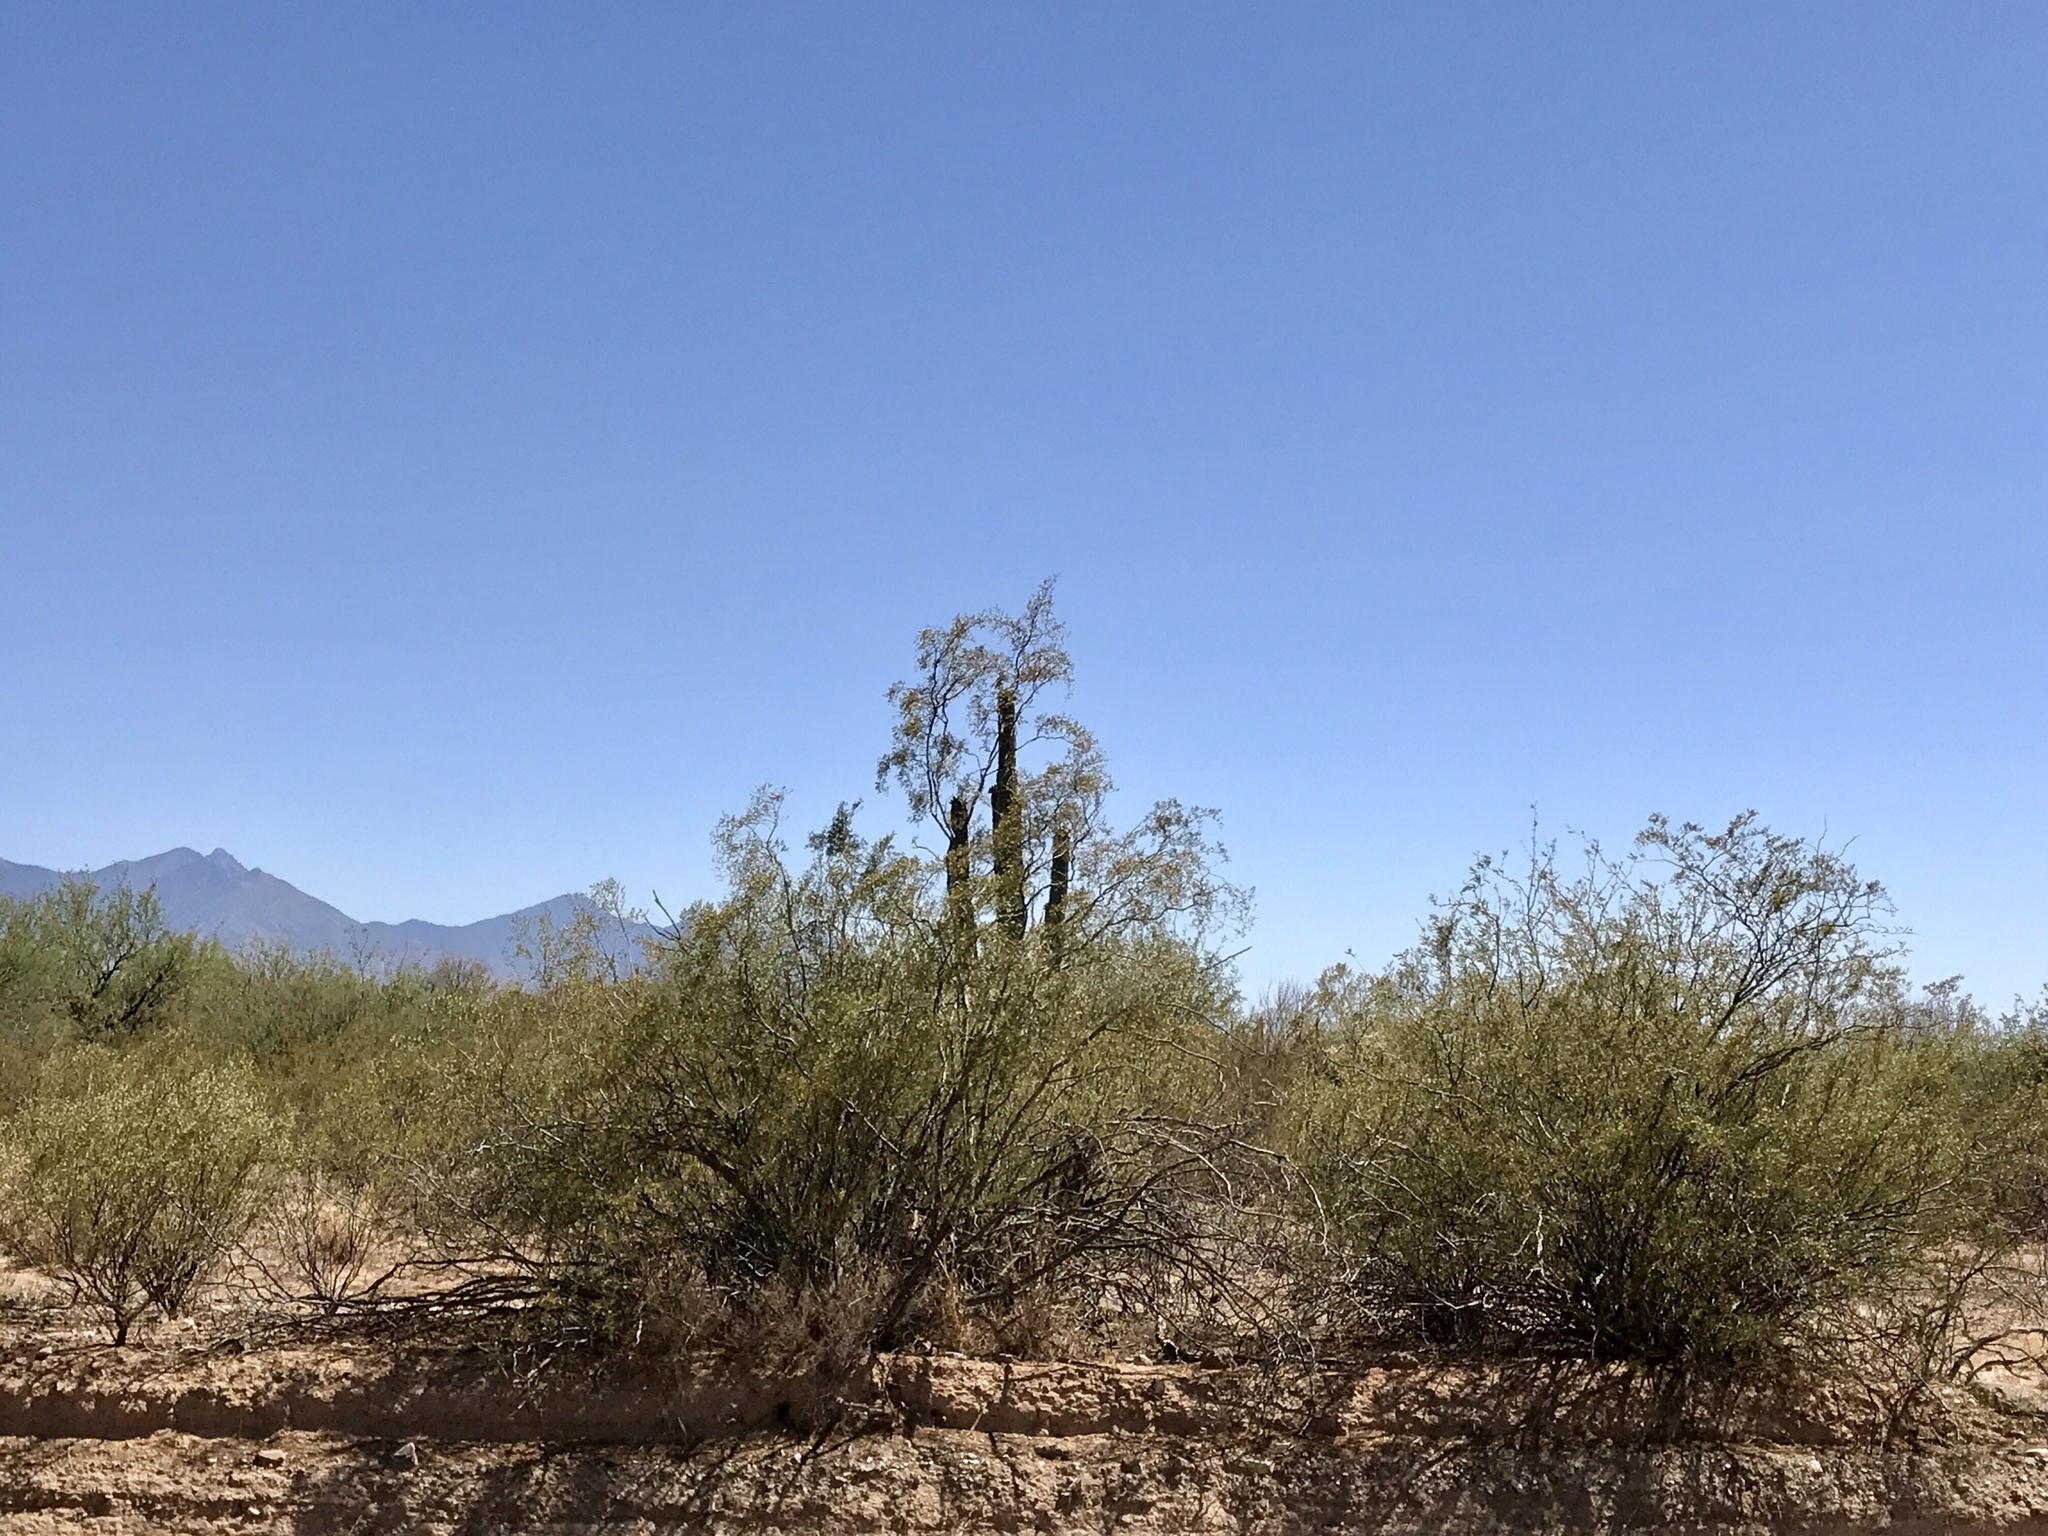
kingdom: Plantae
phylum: Tracheophyta
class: Magnoliopsida
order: Zygophyllales
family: Zygophyllaceae
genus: Larrea
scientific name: Larrea tridentata
